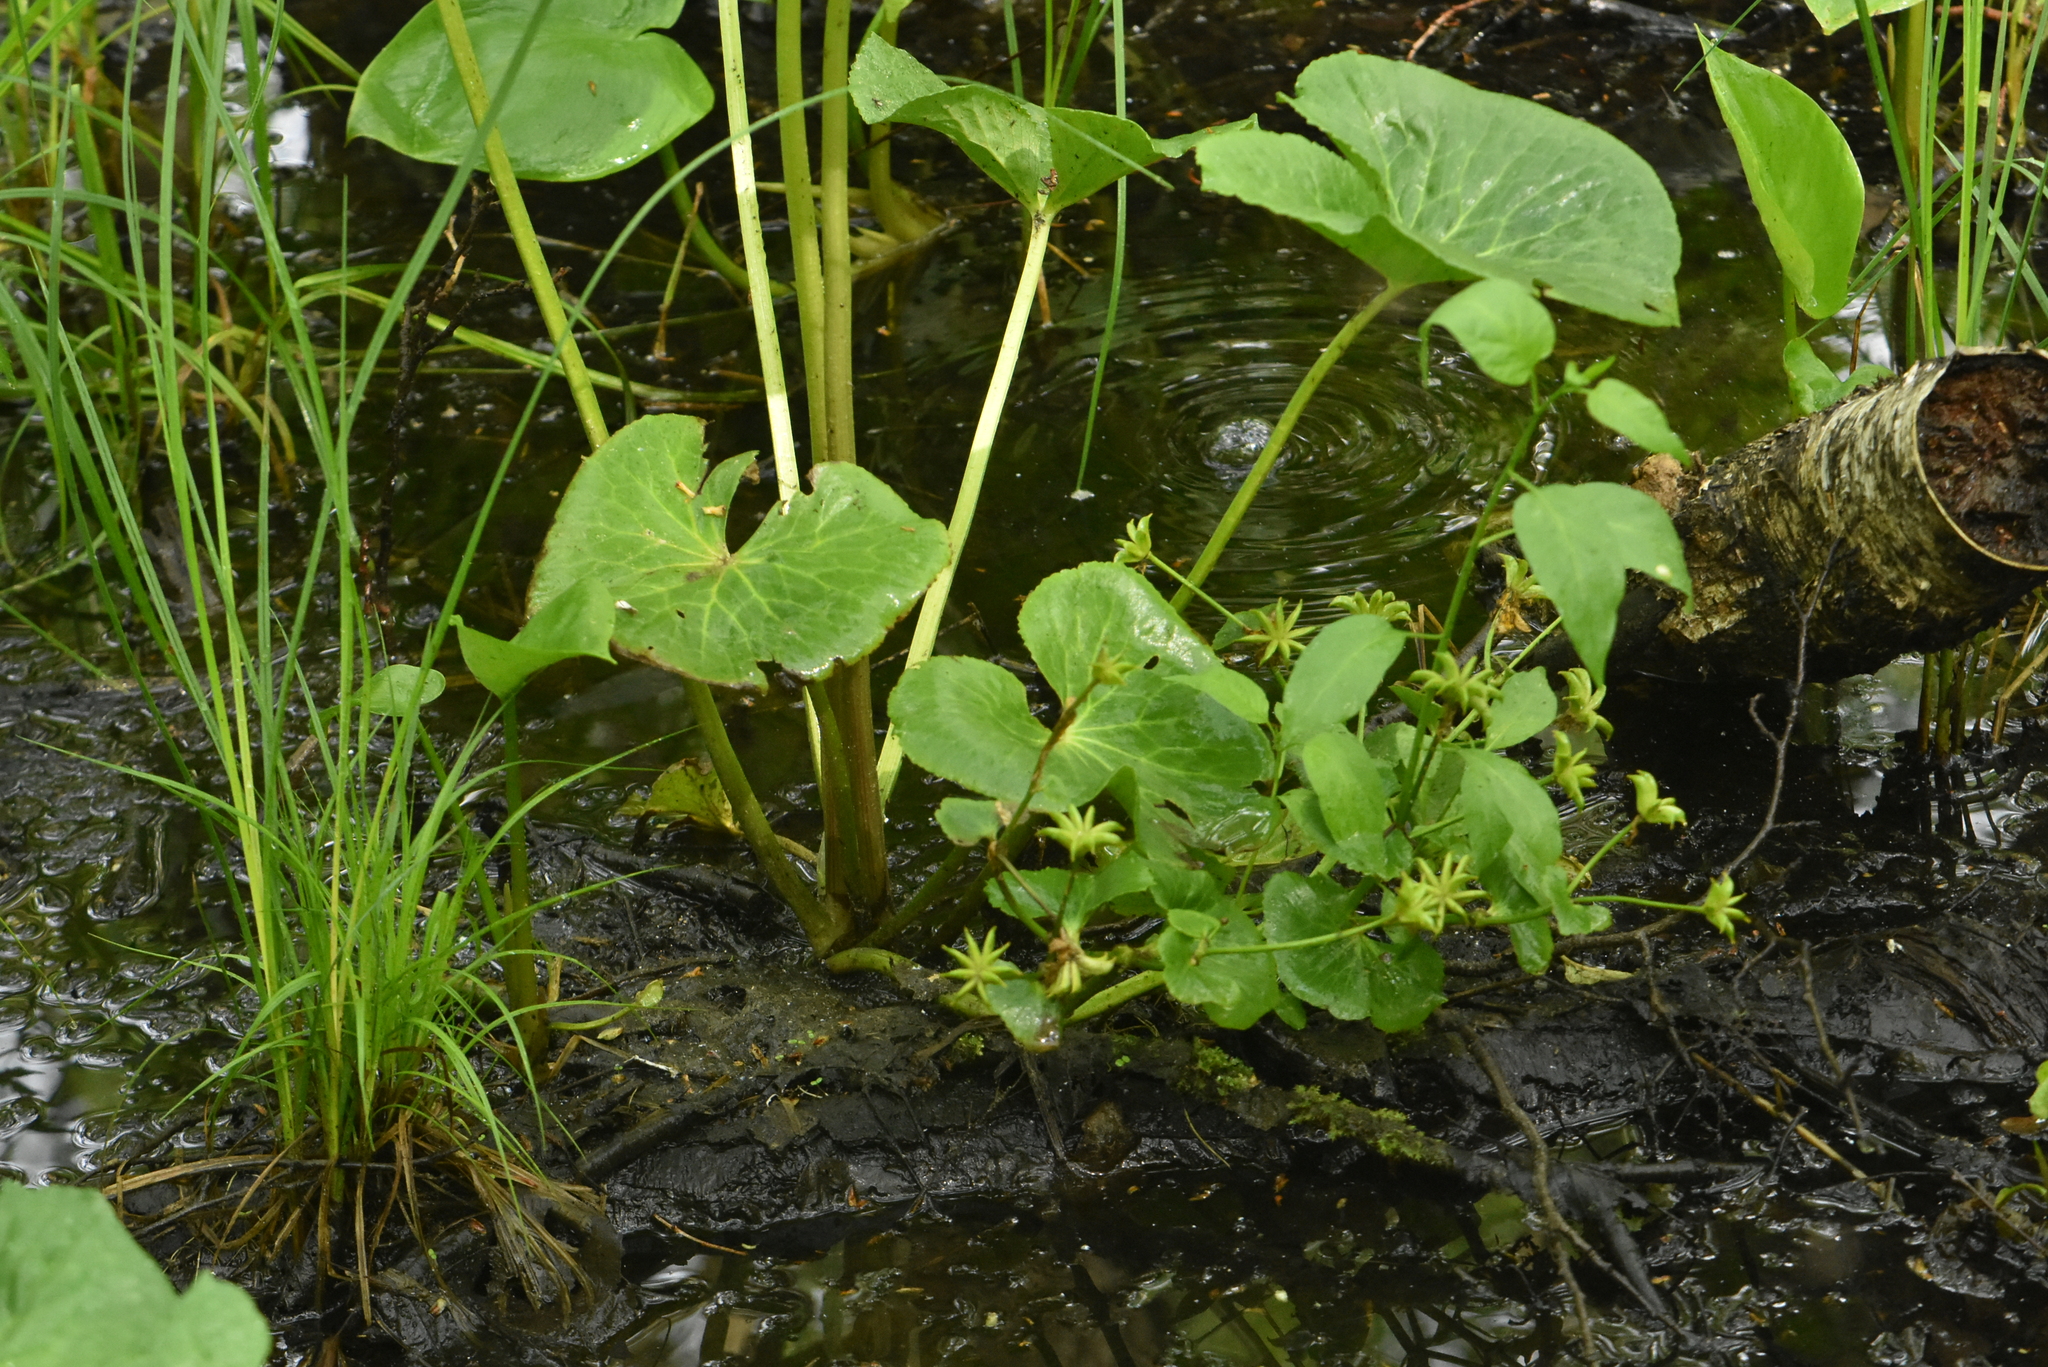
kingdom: Plantae
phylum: Tracheophyta
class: Magnoliopsida
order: Ranunculales
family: Ranunculaceae
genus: Caltha
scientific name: Caltha palustris
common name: Marsh marigold
